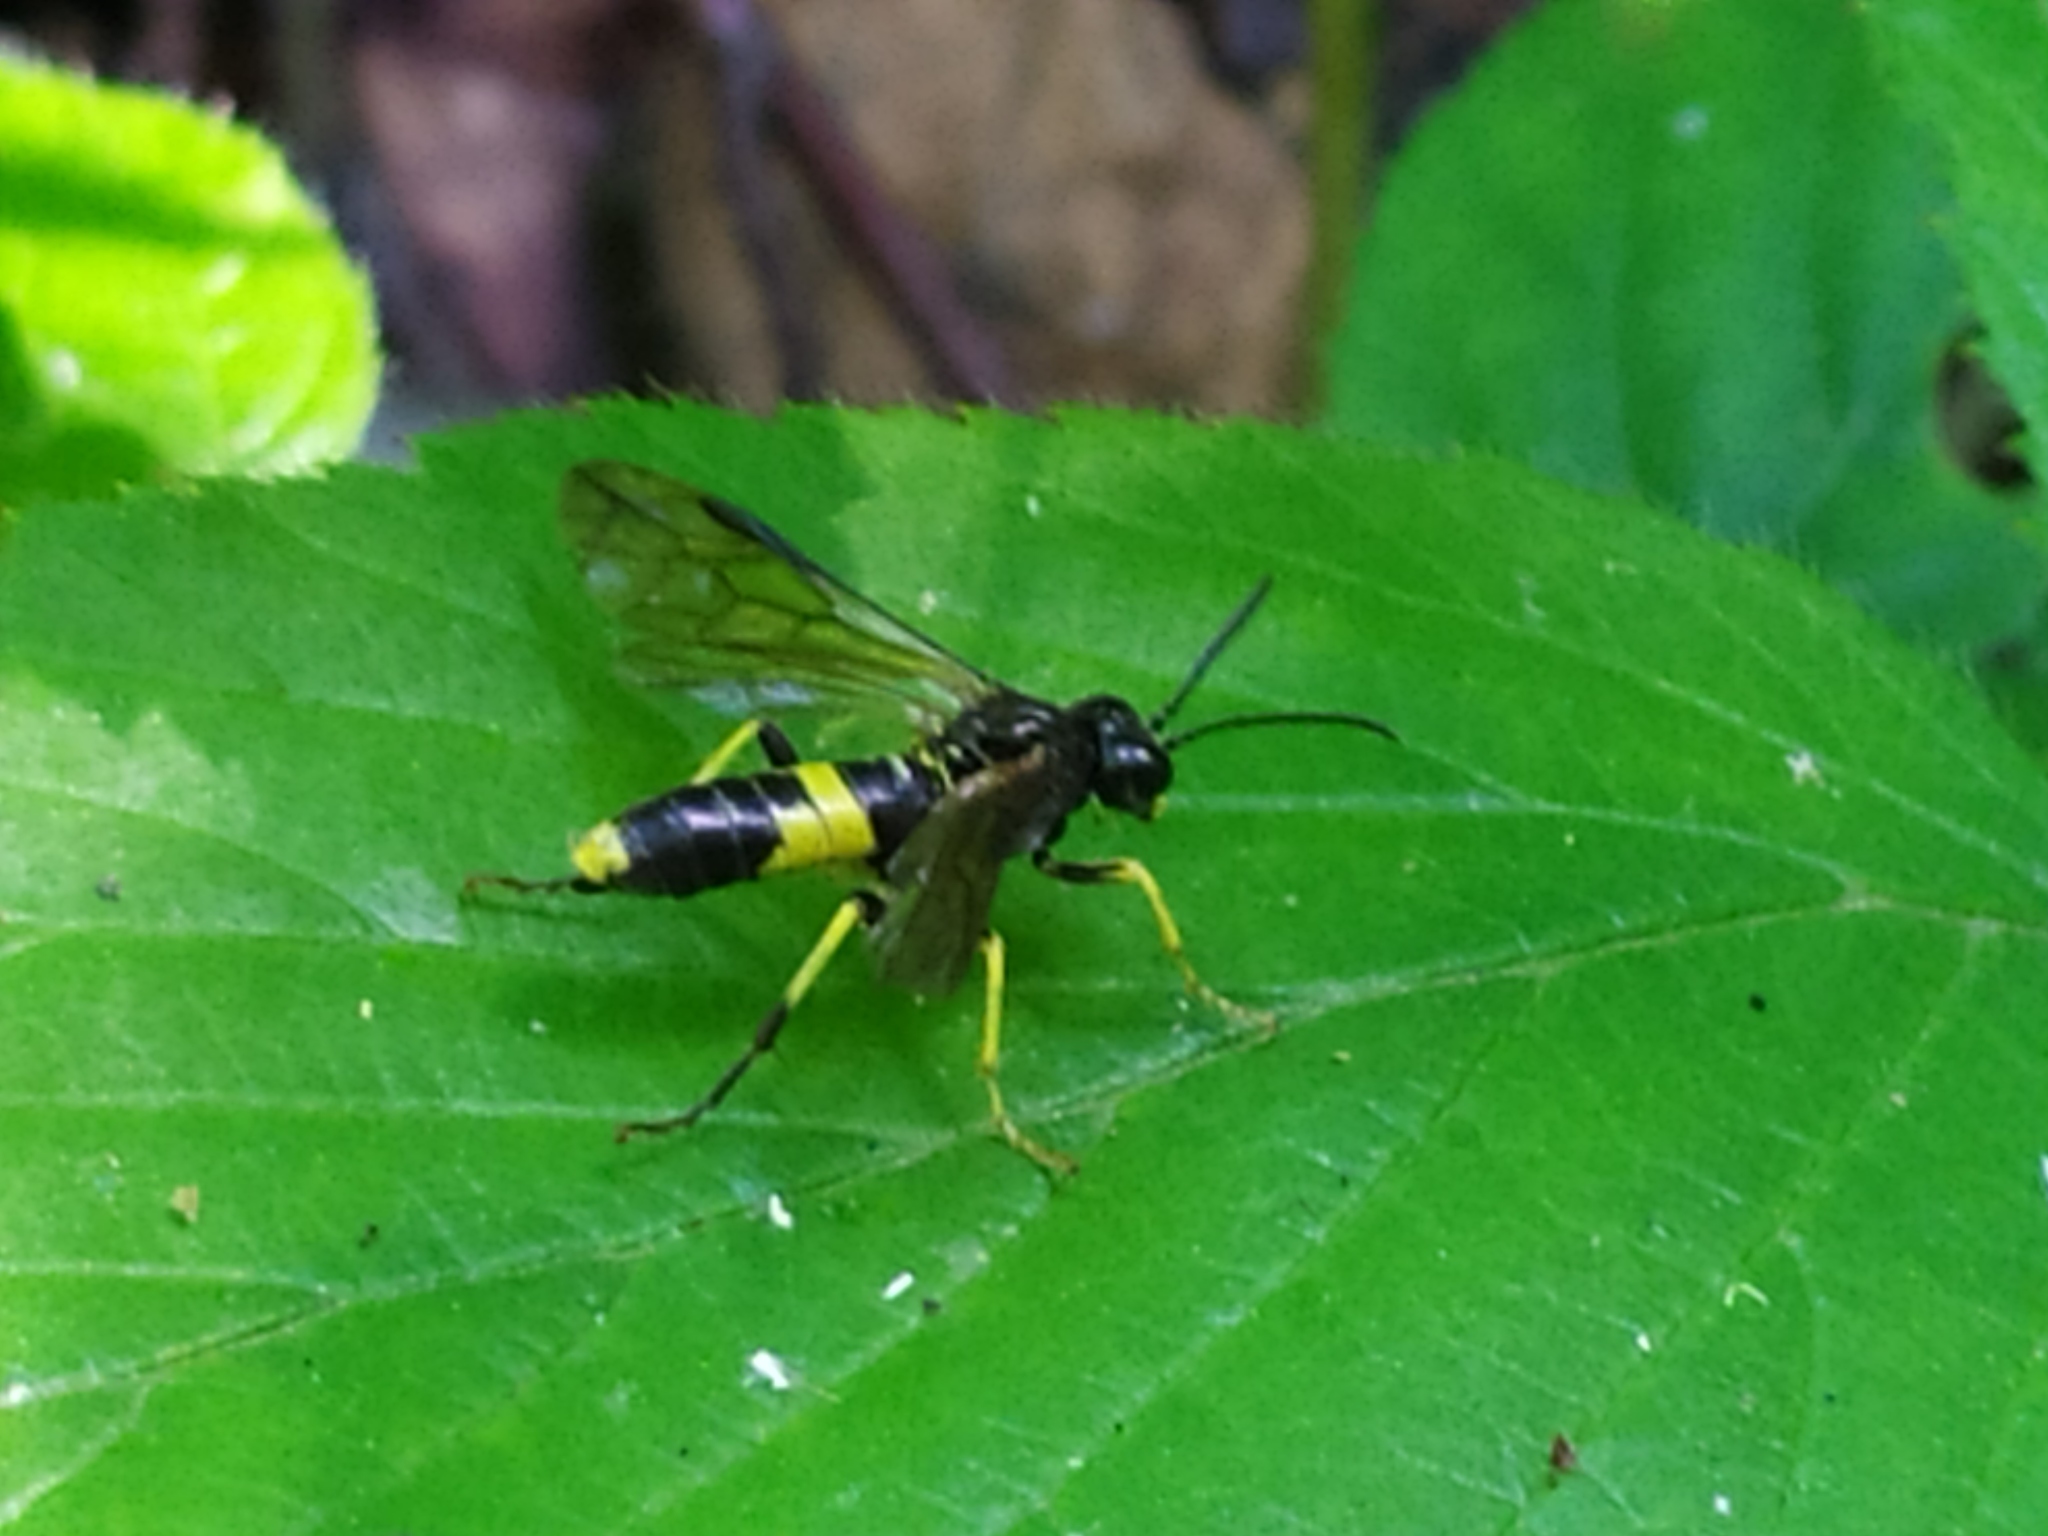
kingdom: Animalia
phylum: Arthropoda
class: Insecta
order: Hymenoptera
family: Tenthredinidae
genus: Tenthredo
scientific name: Tenthredo temula
